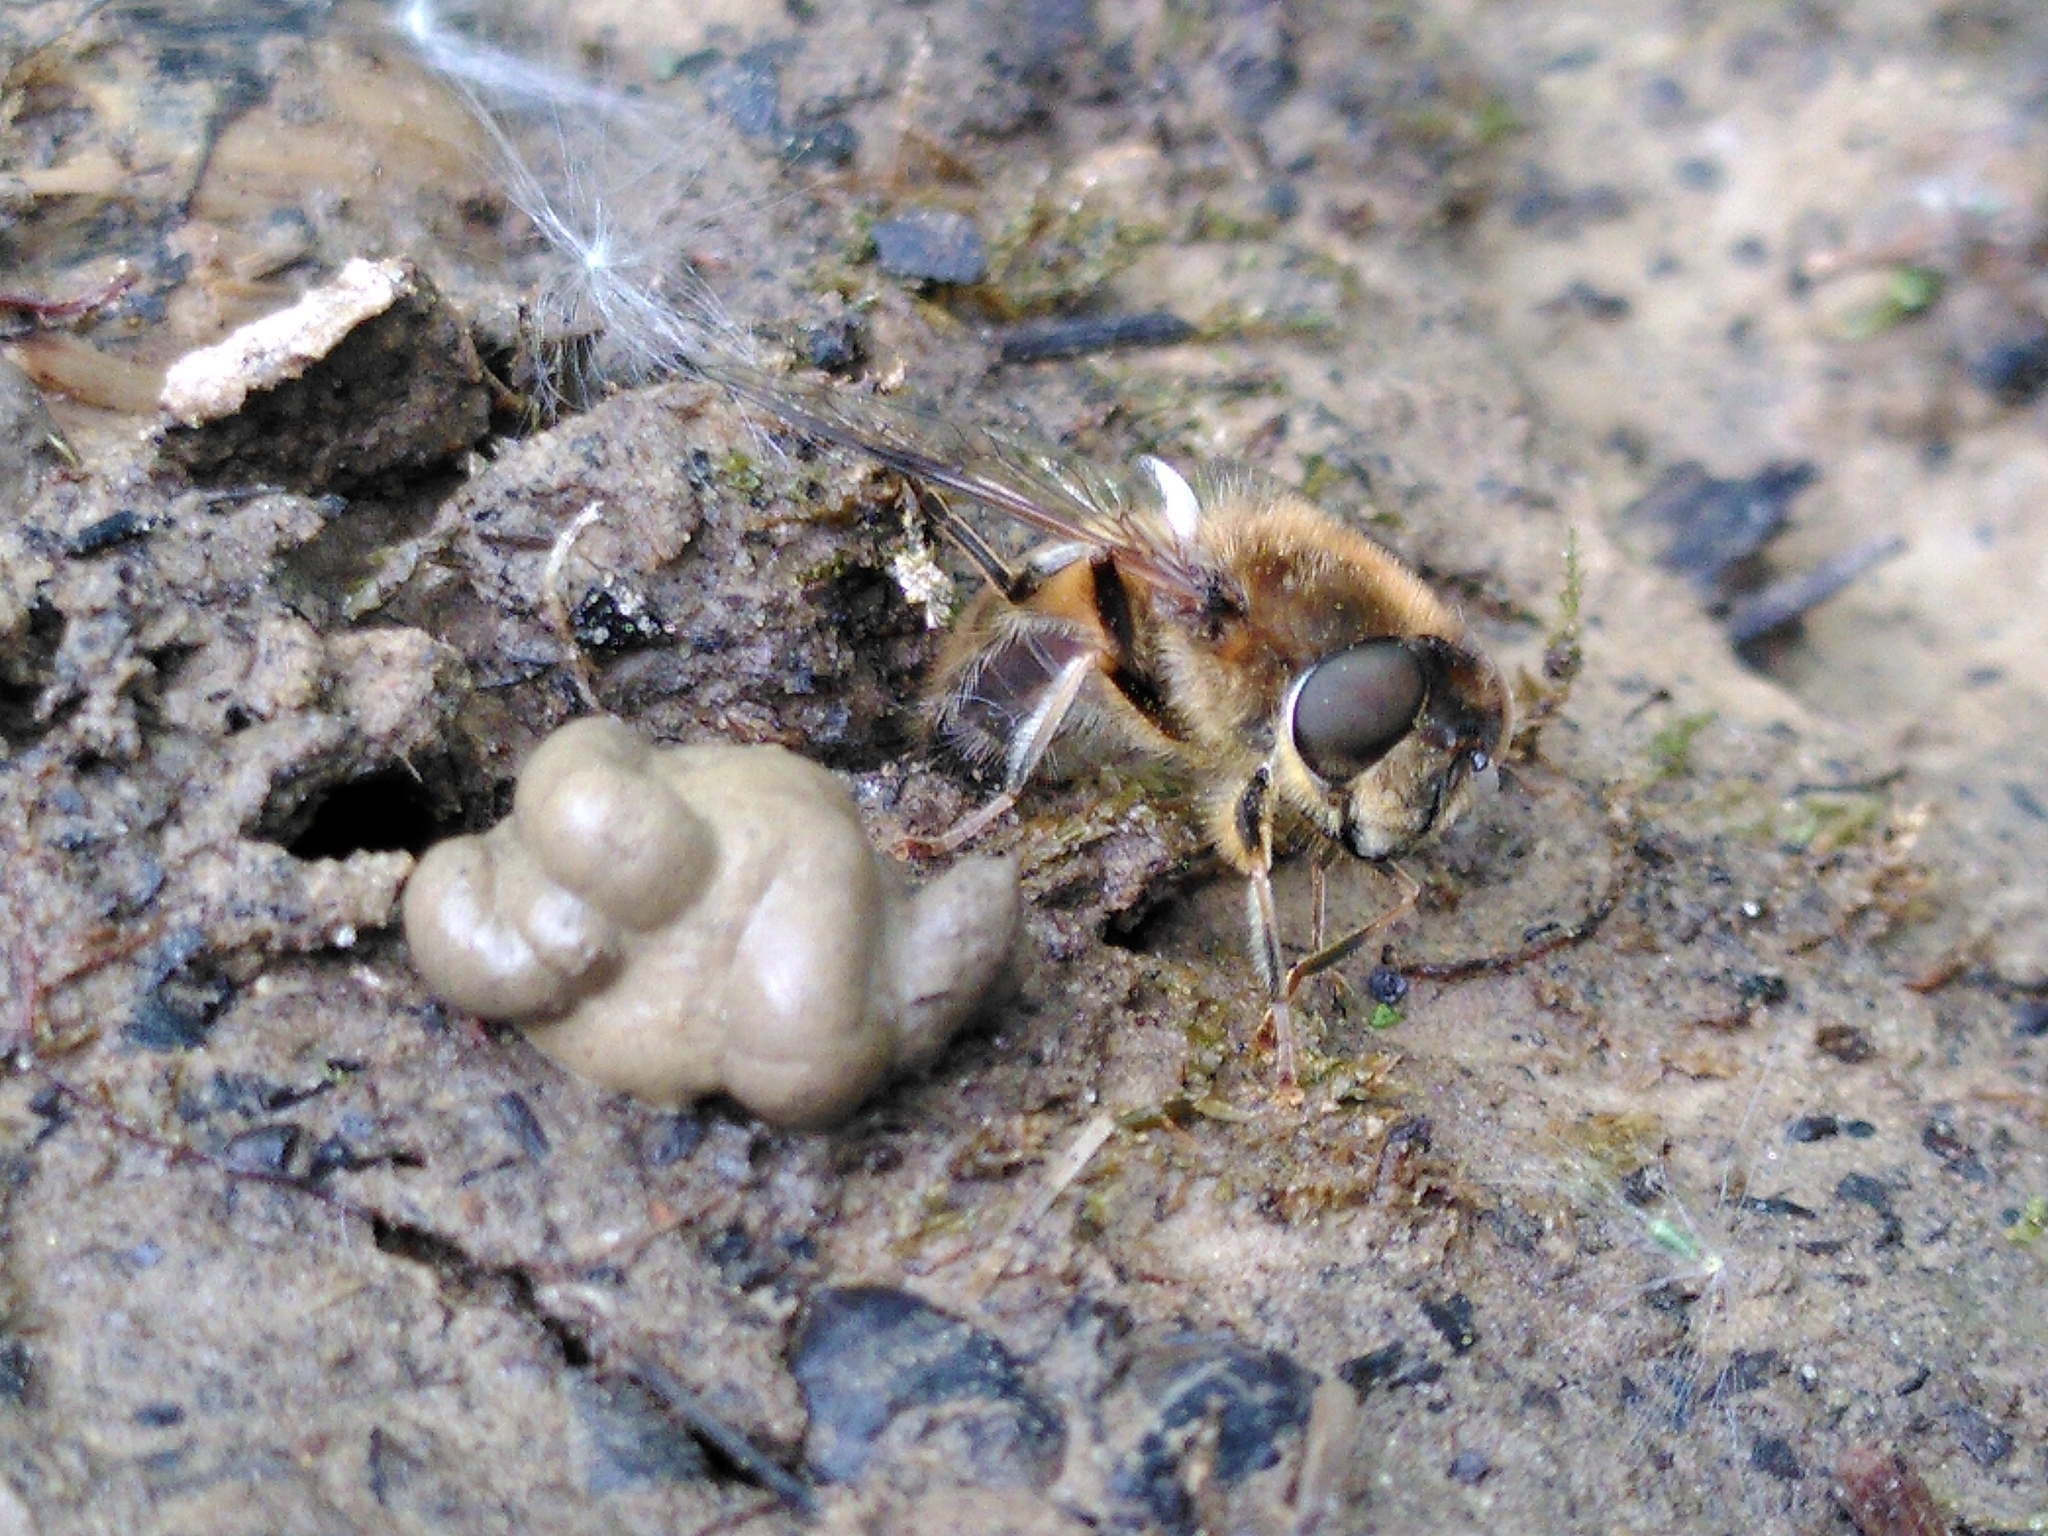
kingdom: Animalia
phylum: Arthropoda
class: Insecta
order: Diptera
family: Syrphidae
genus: Eristalis
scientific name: Eristalis pertinax
